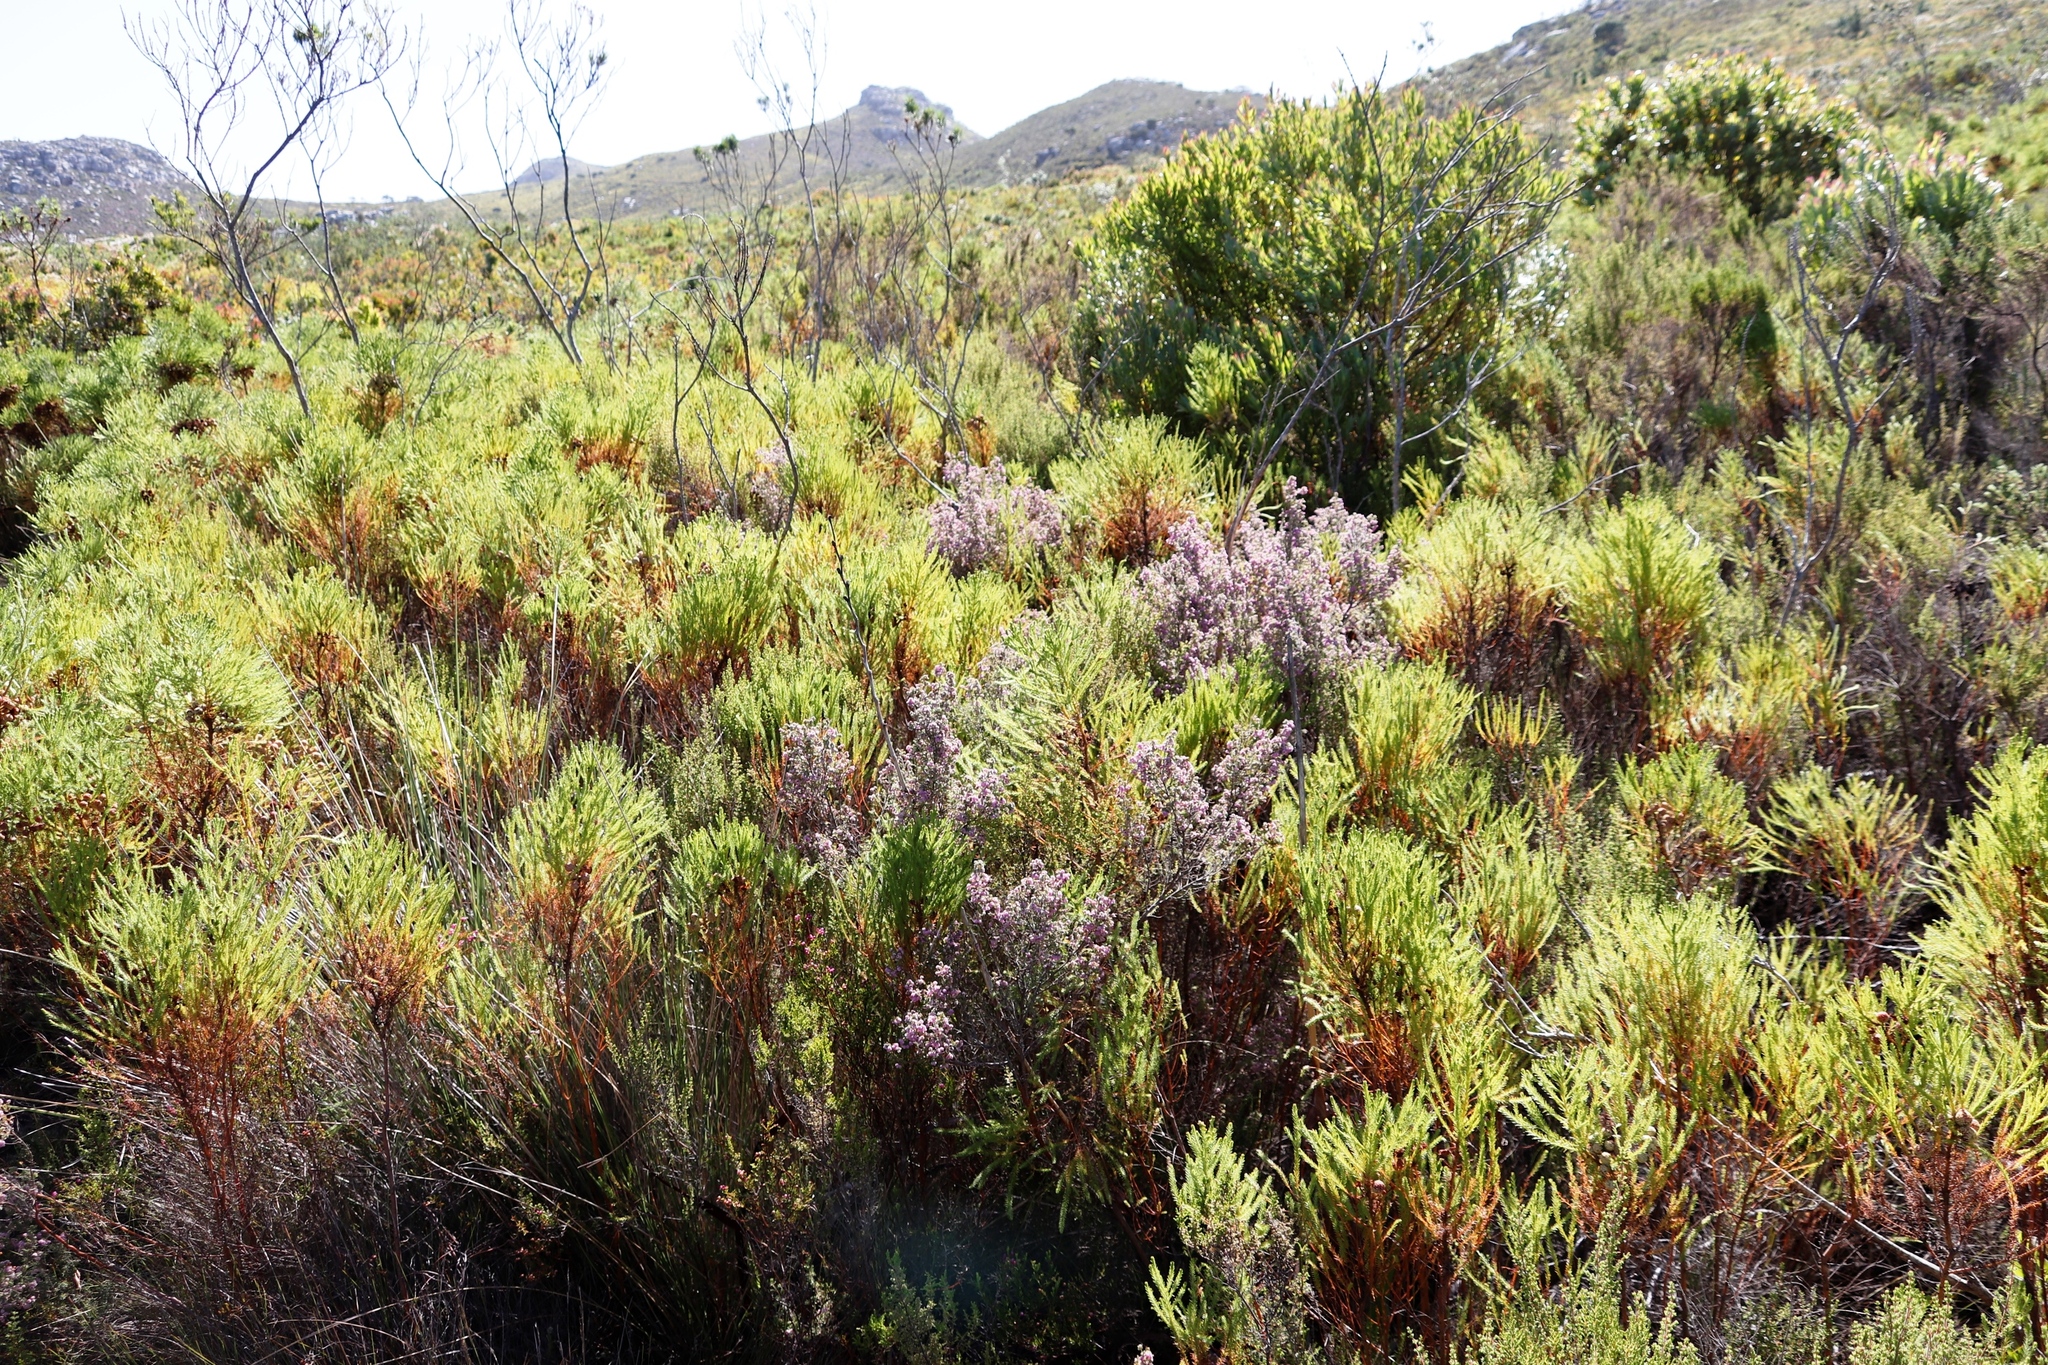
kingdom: Plantae
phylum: Tracheophyta
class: Magnoliopsida
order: Ericales
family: Ericaceae
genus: Erica
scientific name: Erica hirtiflora
